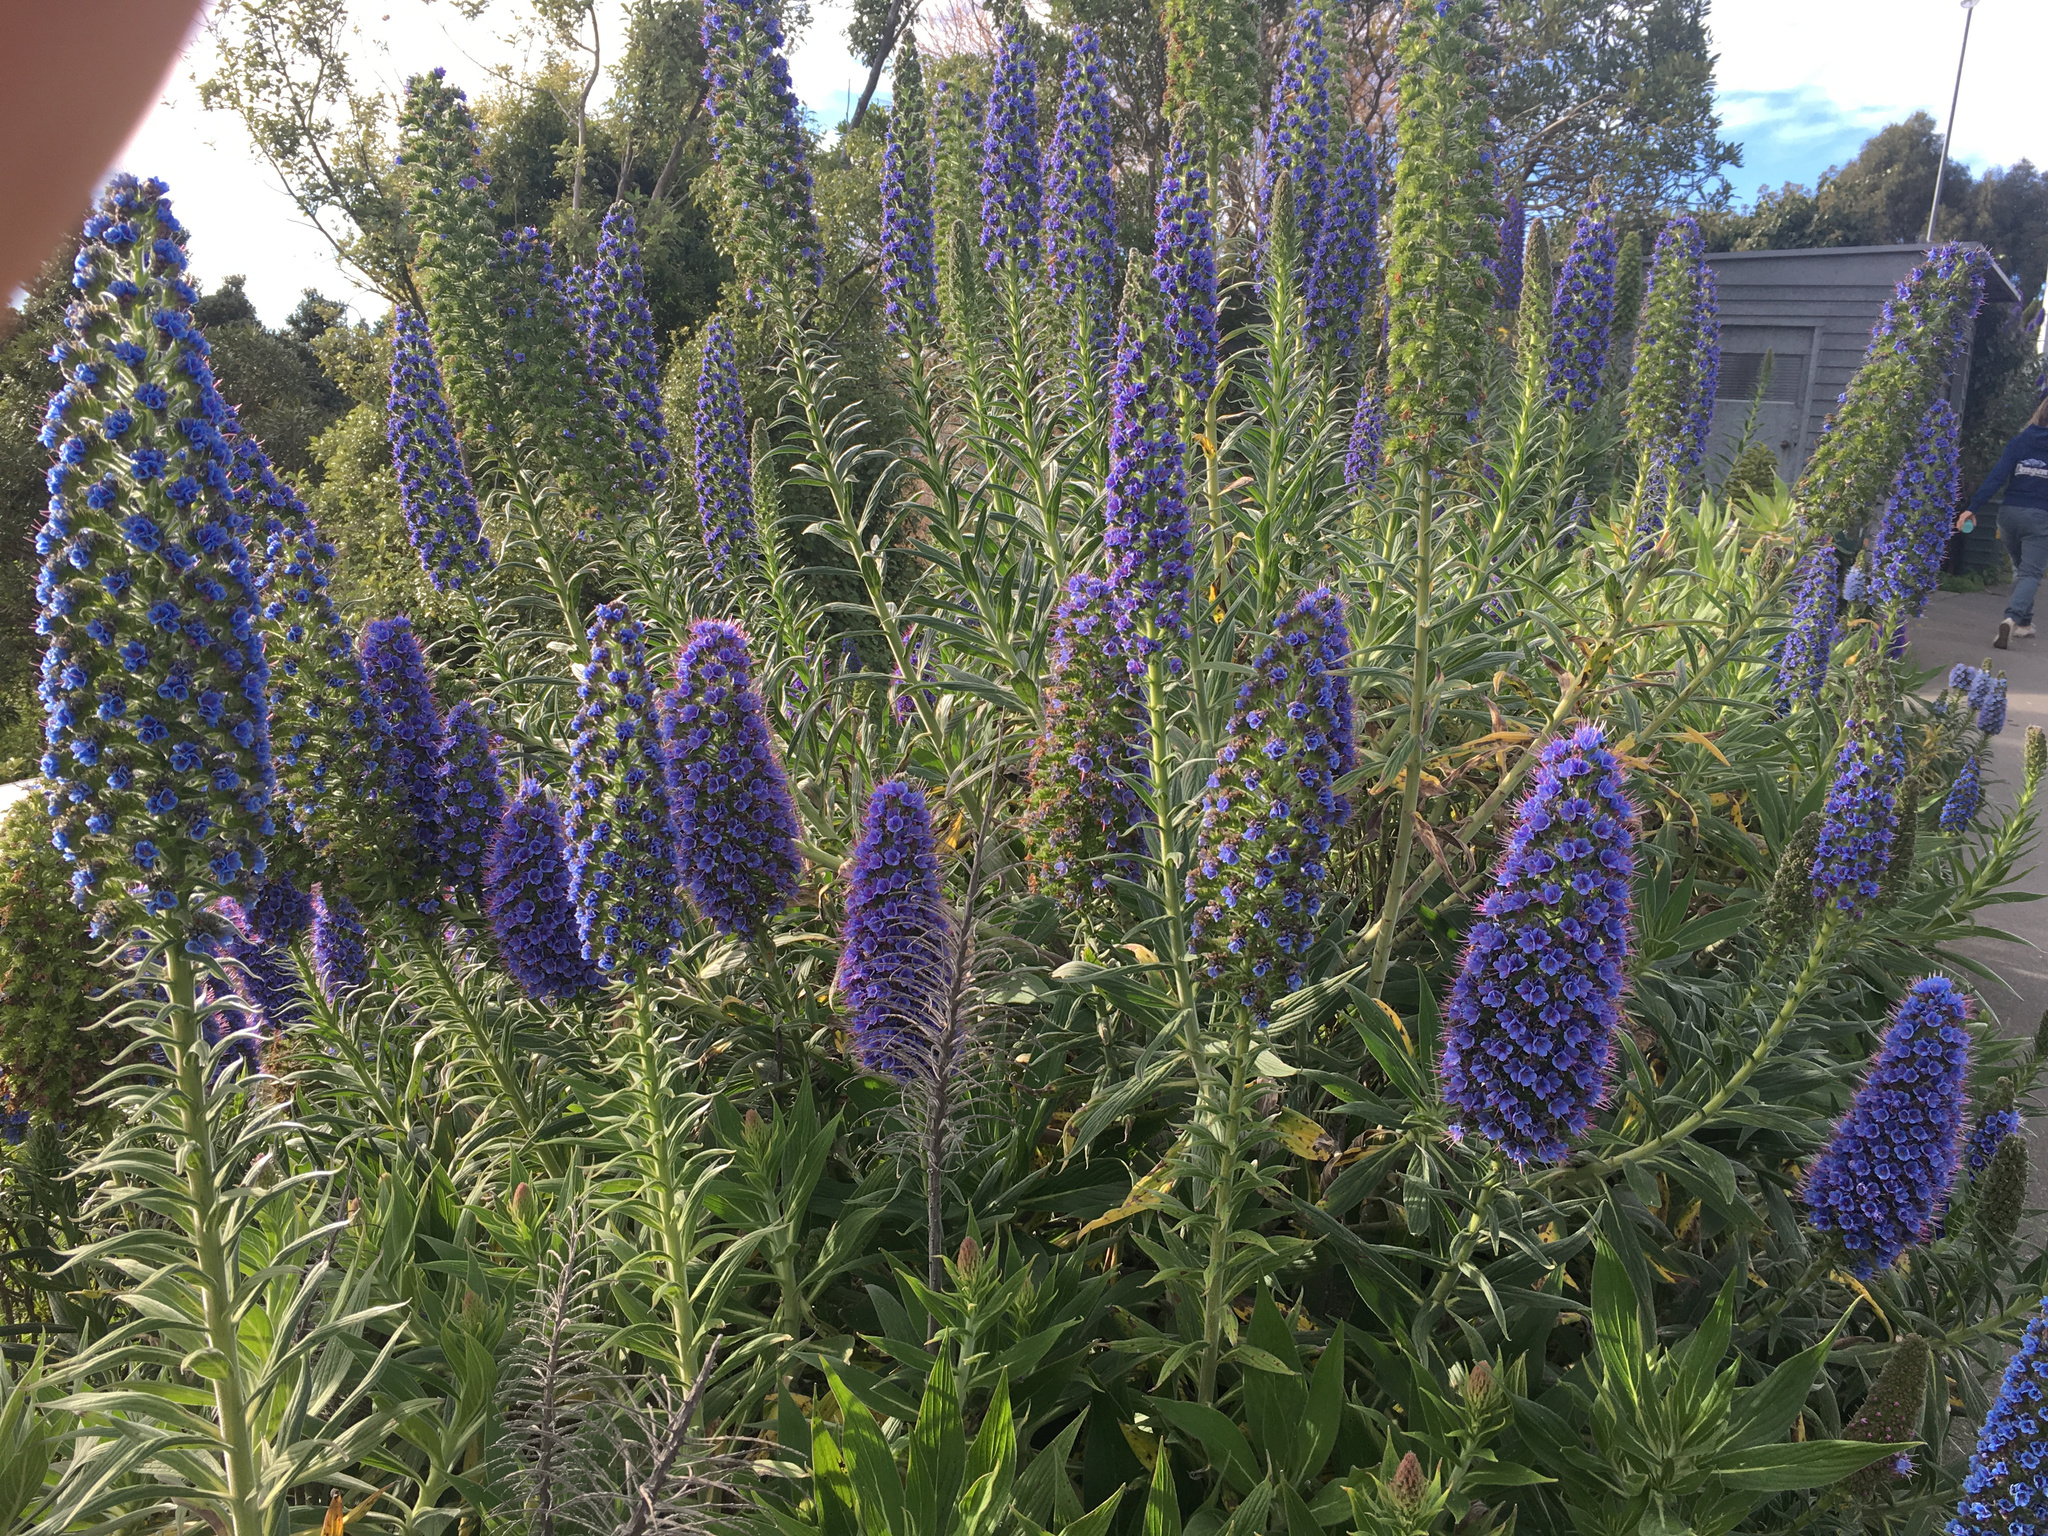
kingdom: Plantae
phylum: Tracheophyta
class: Magnoliopsida
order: Boraginales
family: Boraginaceae
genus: Echium
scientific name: Echium candicans
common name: Pride of madeira
